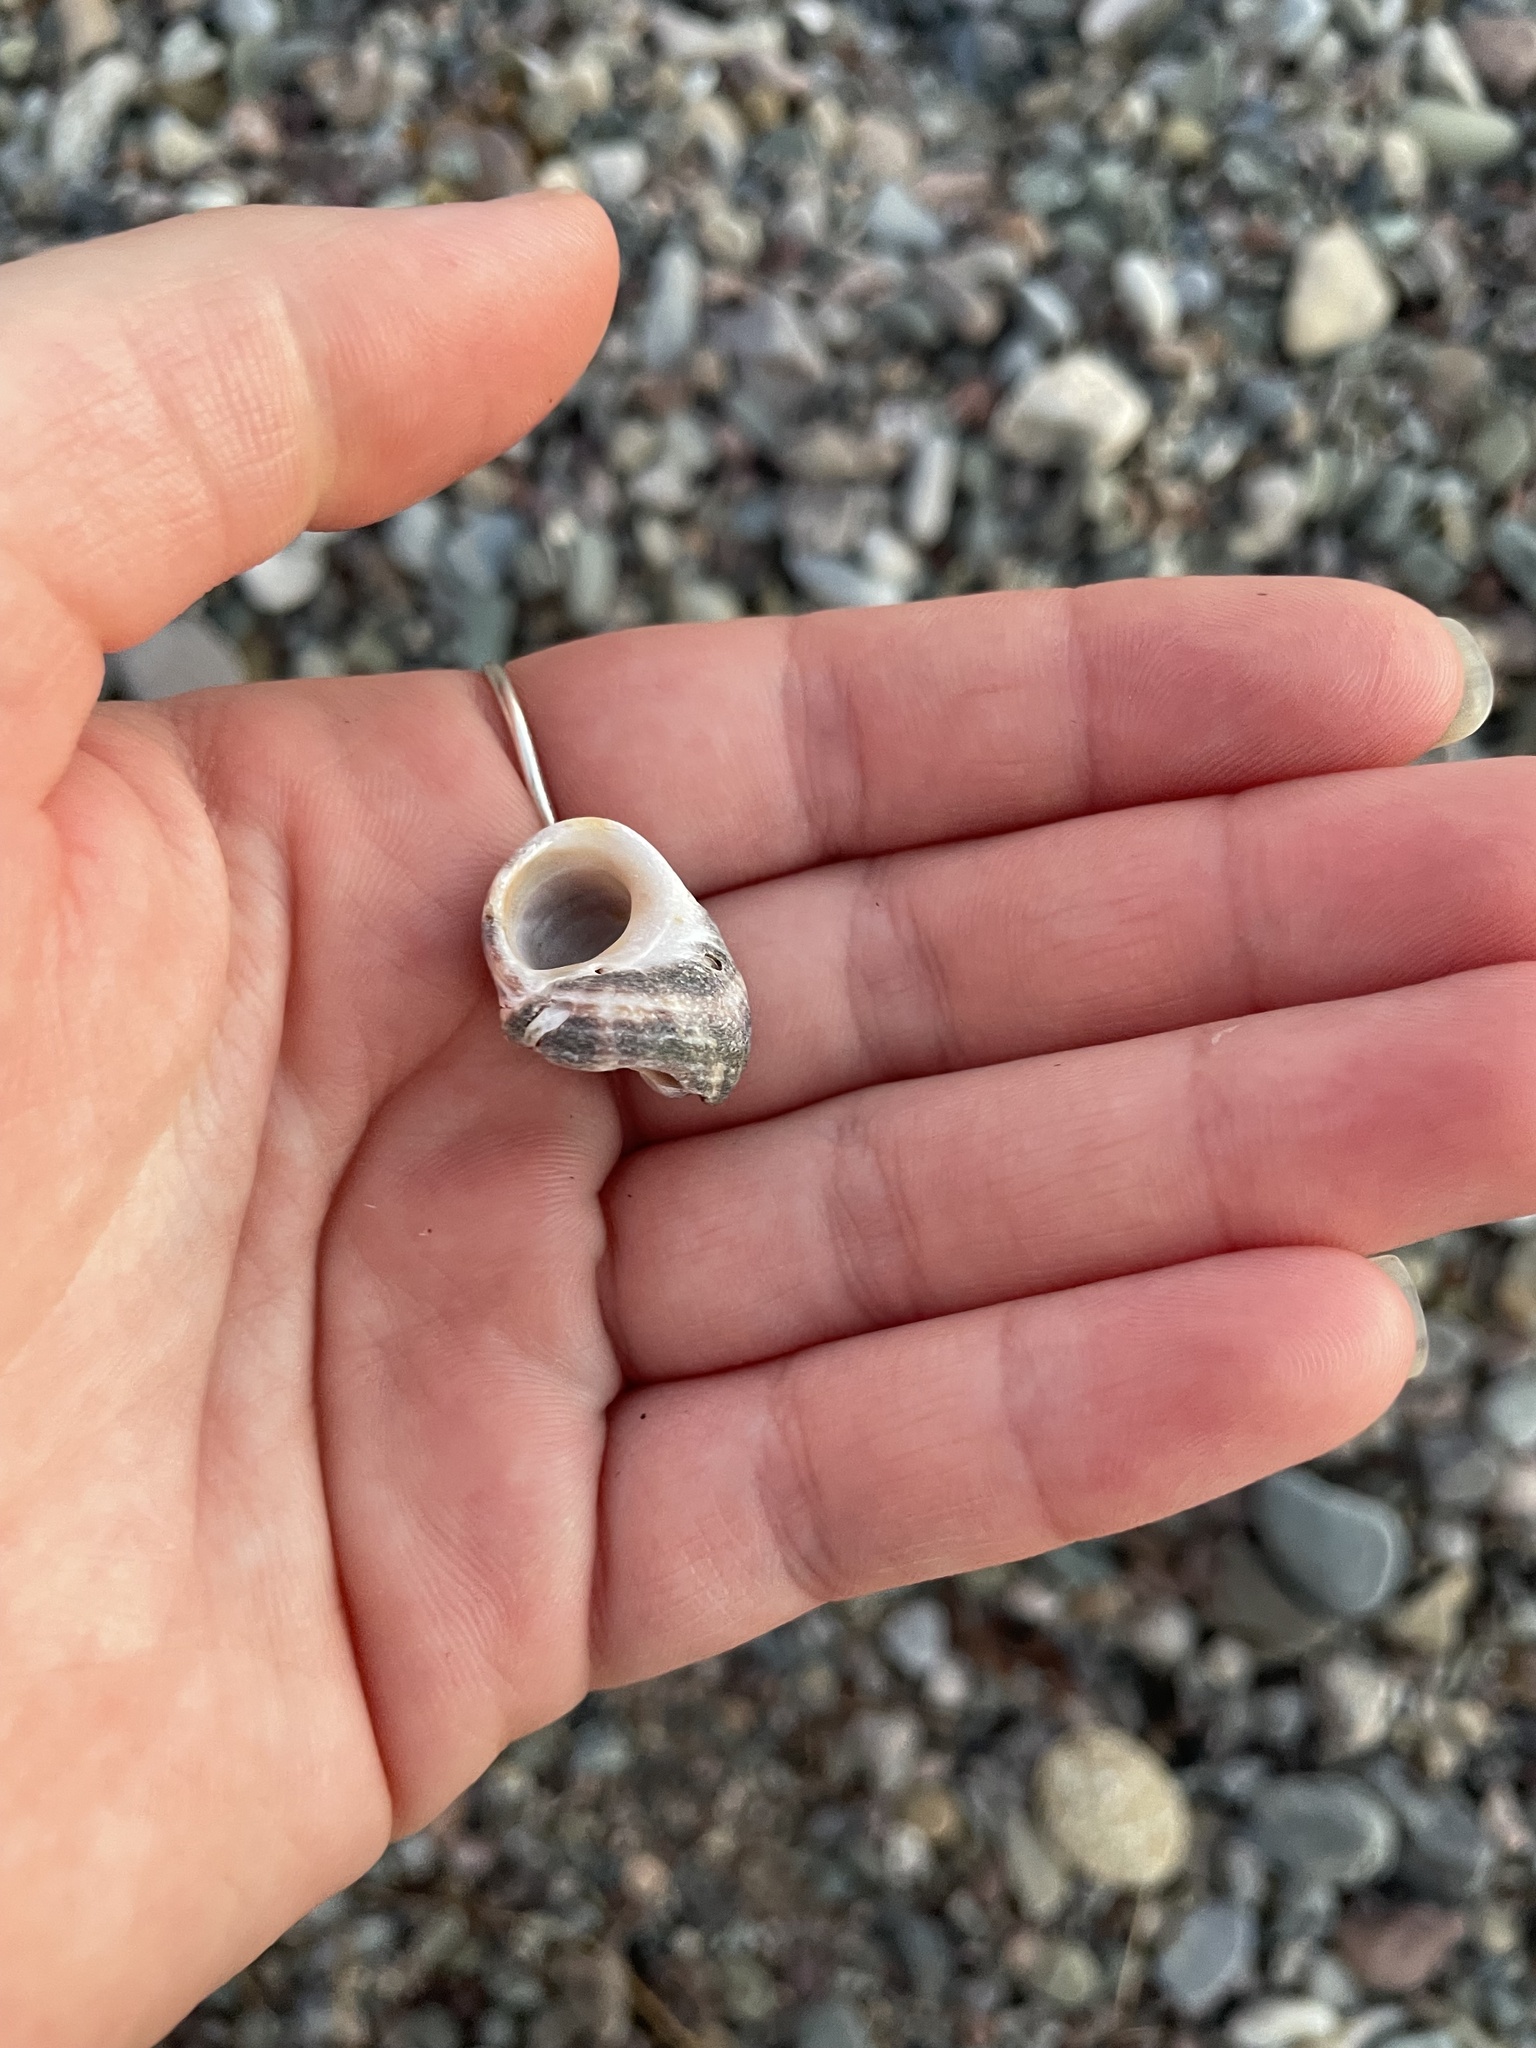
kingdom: Animalia
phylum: Mollusca
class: Gastropoda
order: Littorinimorpha
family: Littorinidae
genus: Littorina
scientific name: Littorina littorea
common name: Common periwinkle
